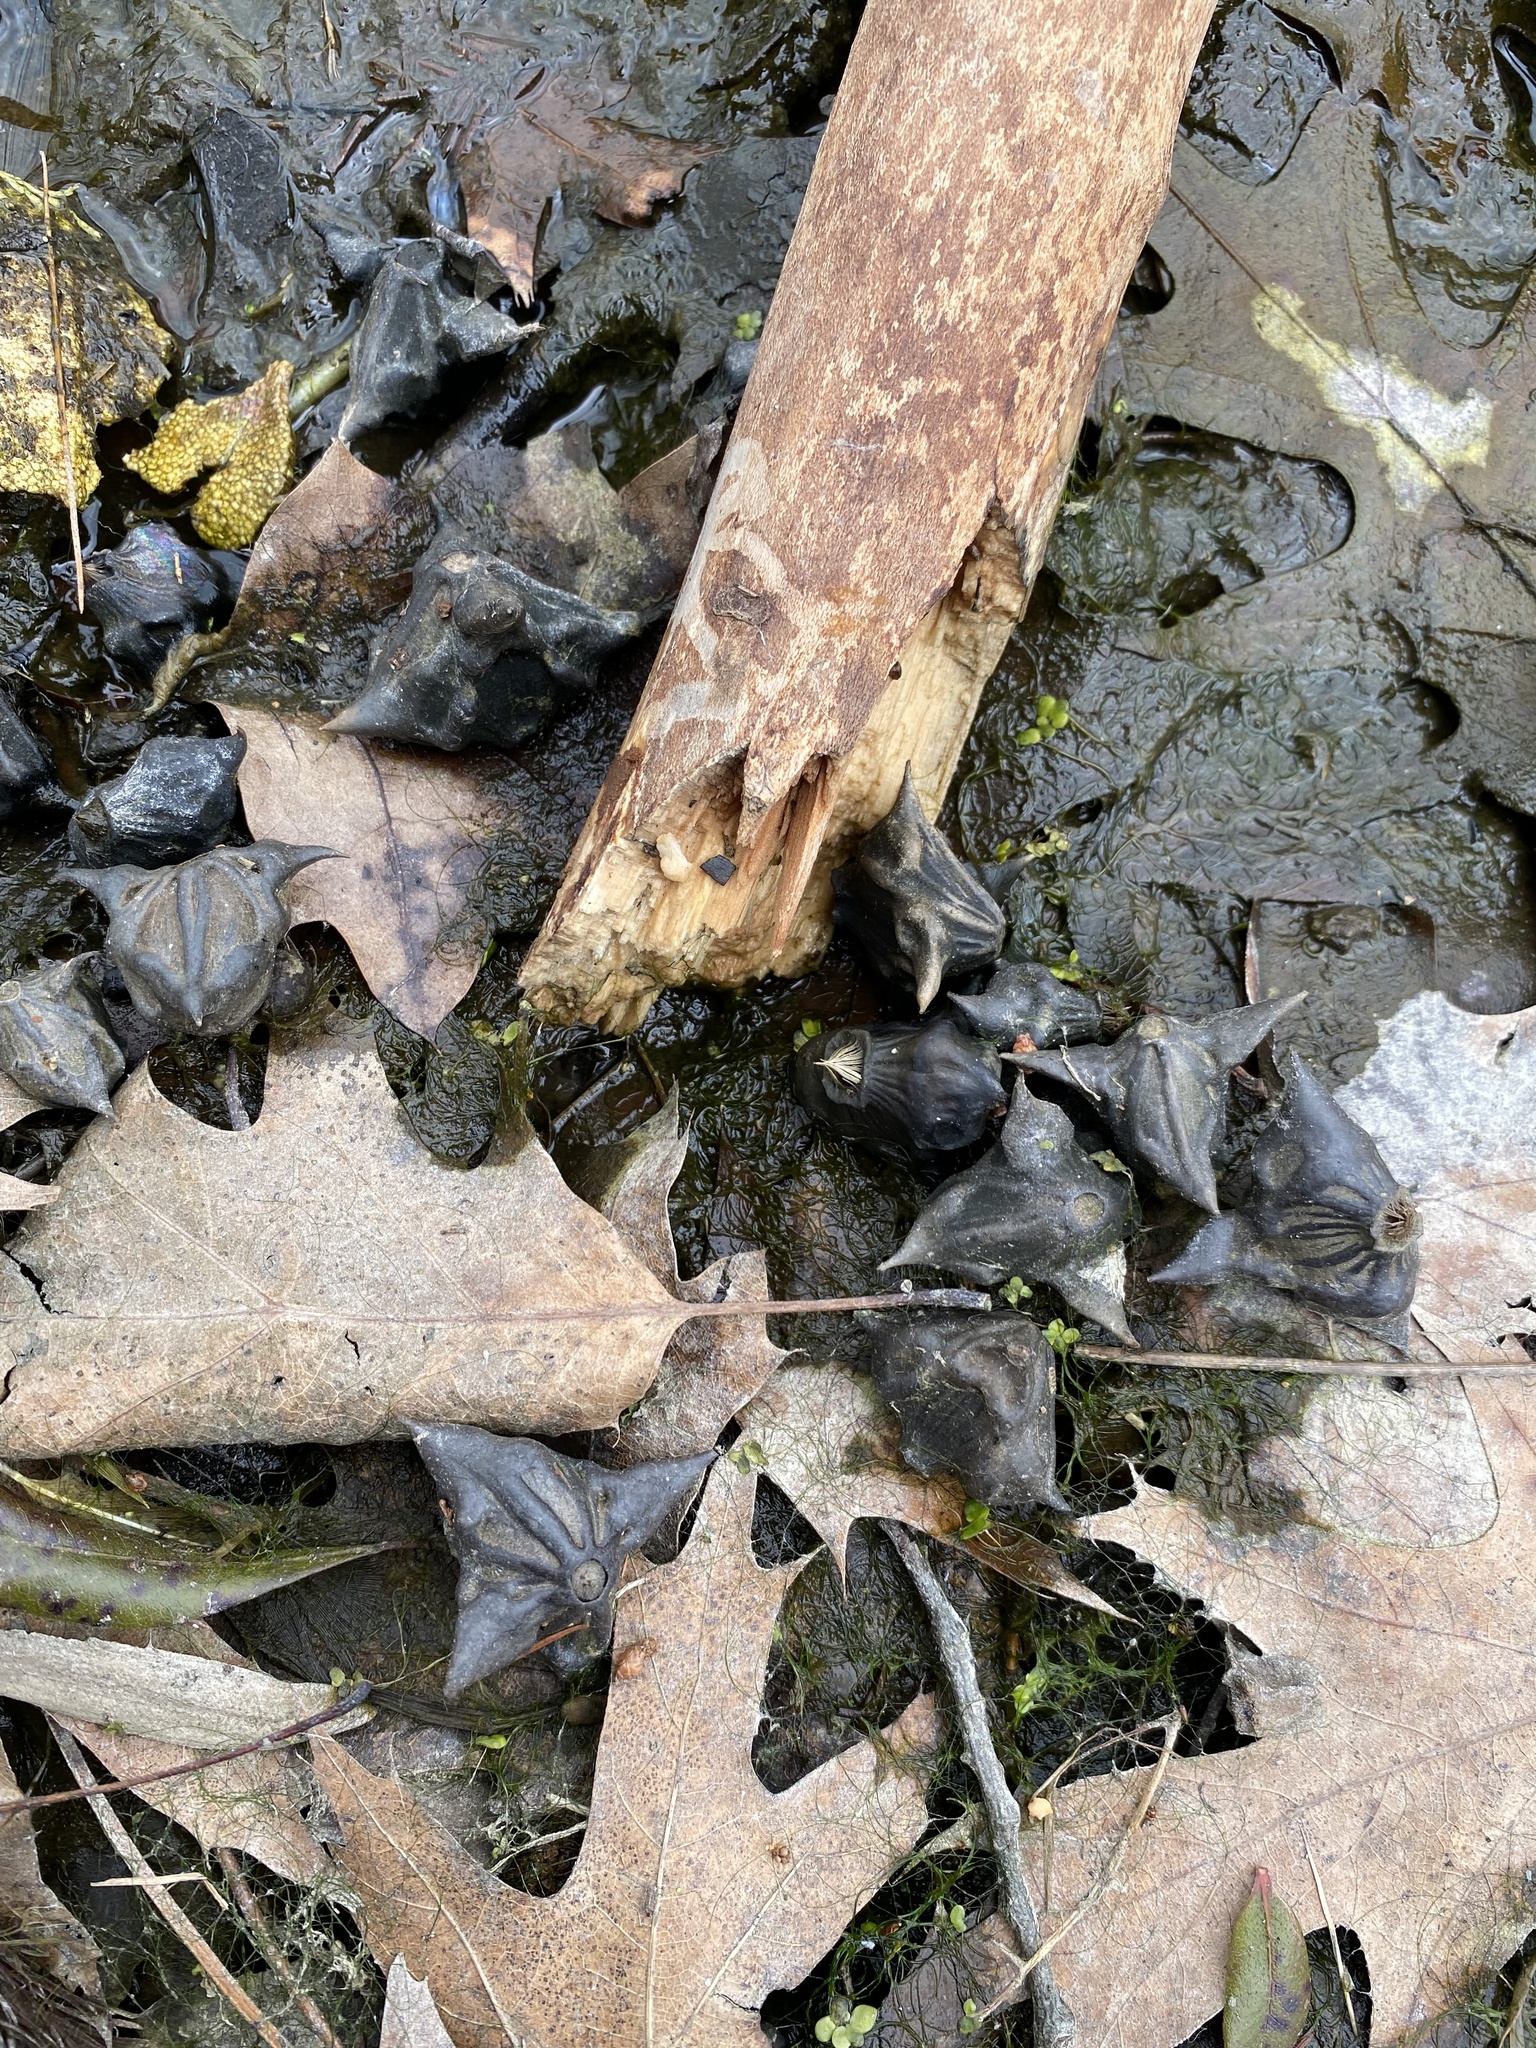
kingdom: Plantae
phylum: Tracheophyta
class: Magnoliopsida
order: Myrtales
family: Lythraceae
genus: Trapa
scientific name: Trapa natans
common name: Water chestnut
